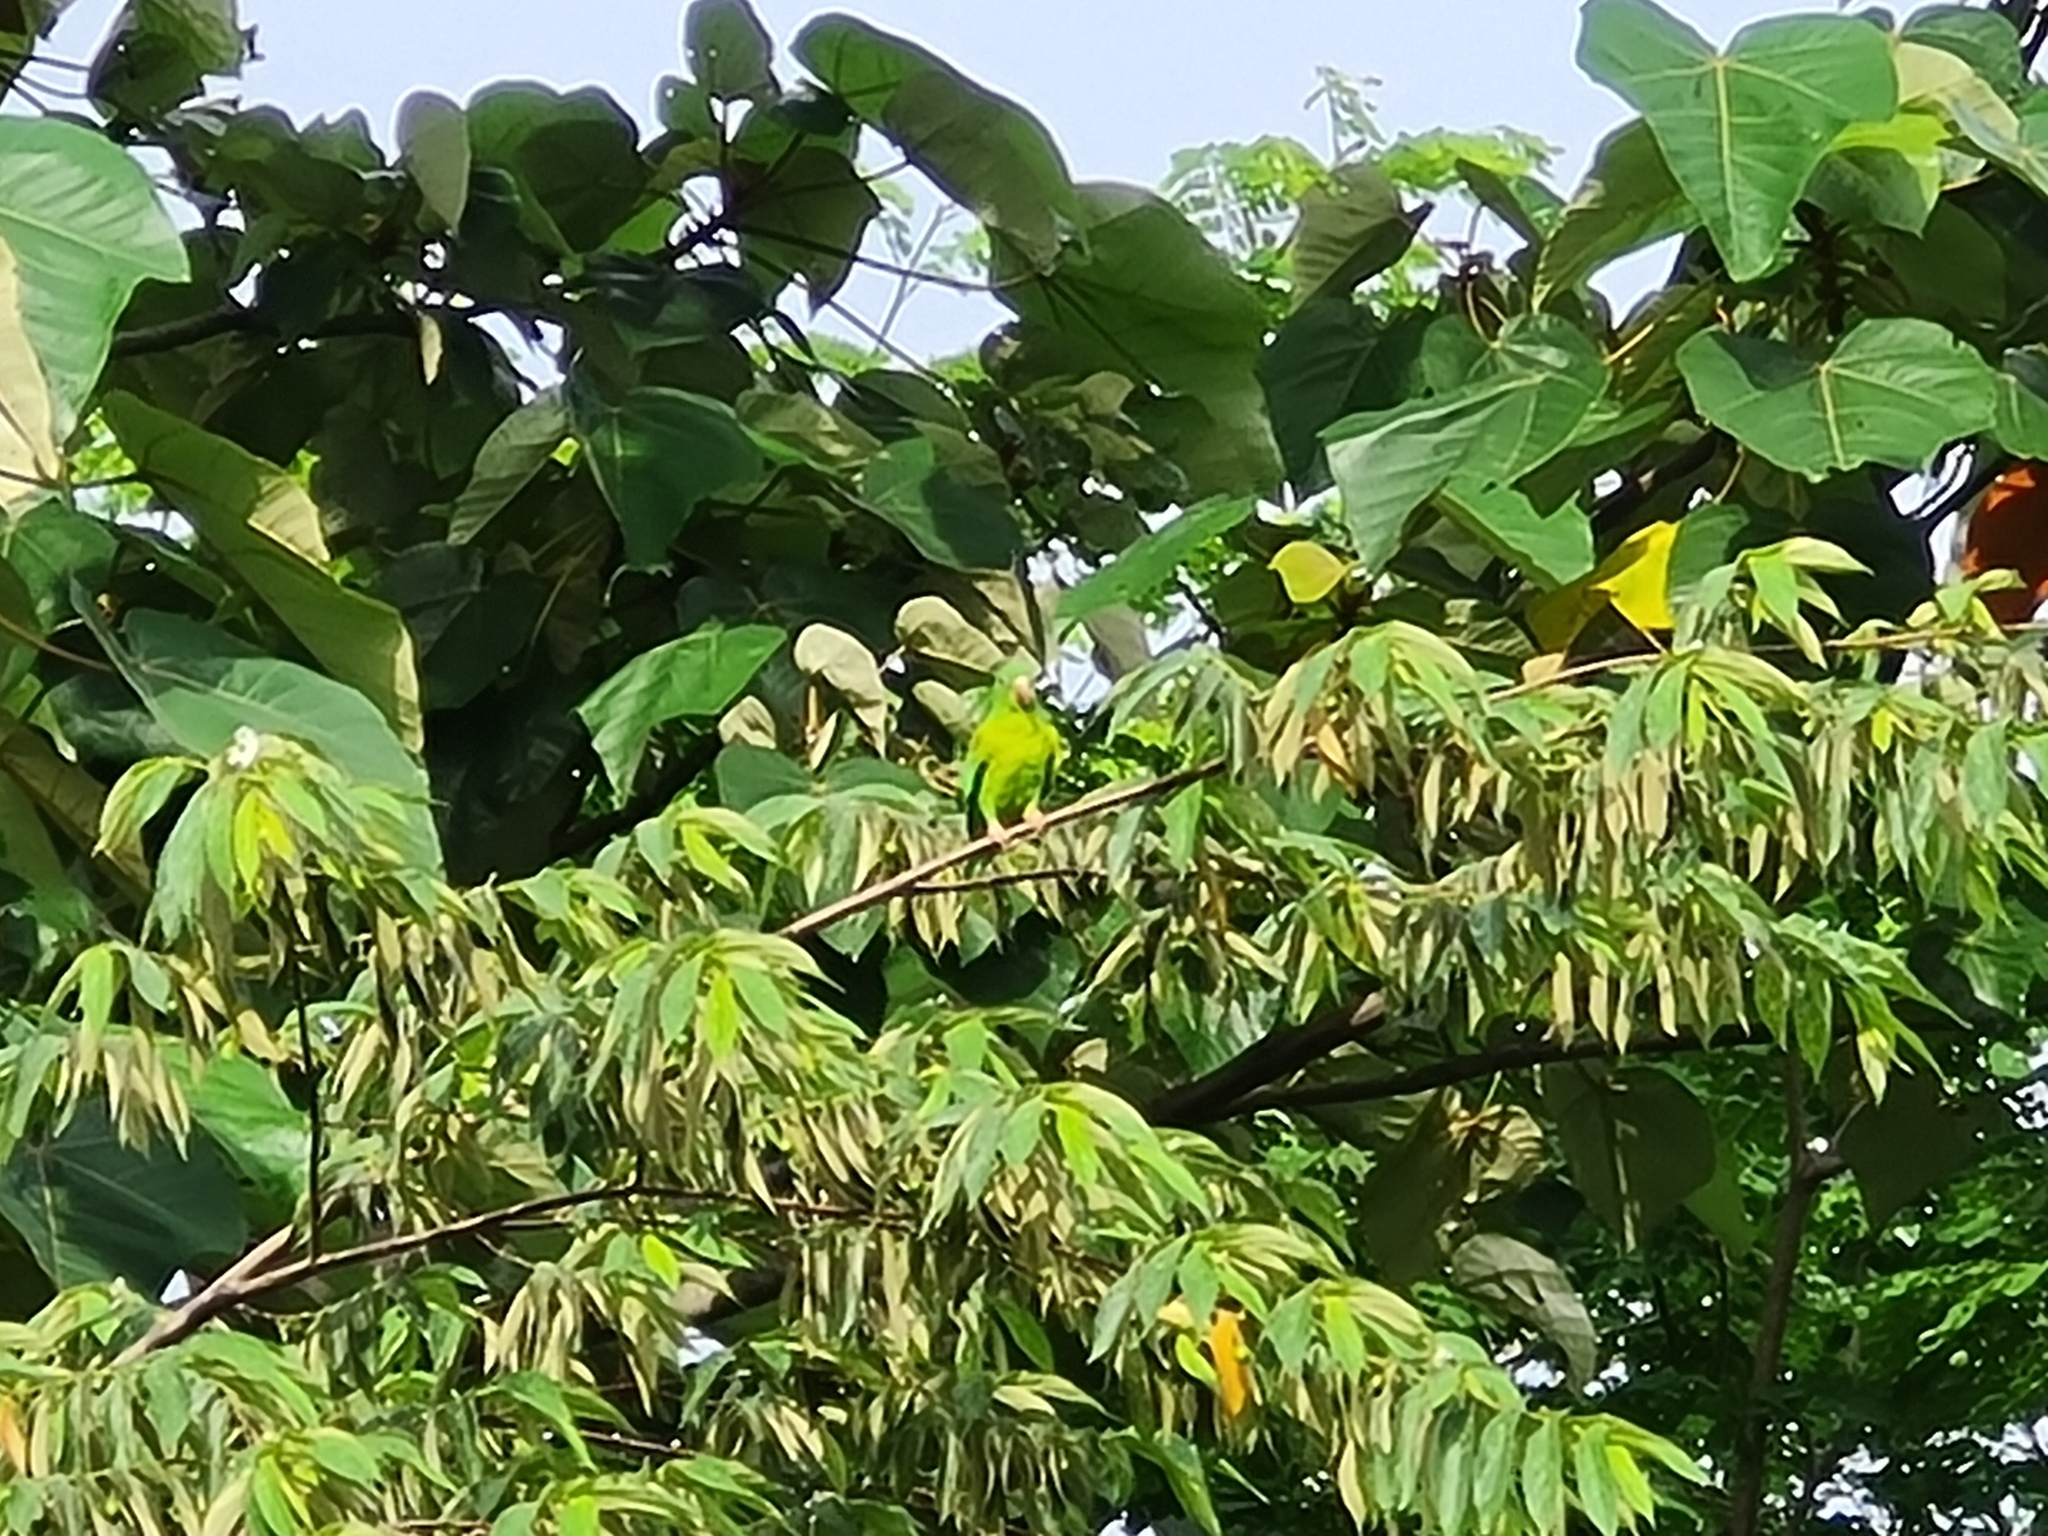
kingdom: Animalia
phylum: Chordata
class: Aves
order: Psittaciformes
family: Psittacidae
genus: Brotogeris
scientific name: Brotogeris jugularis
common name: Orange-chinned parakeet
